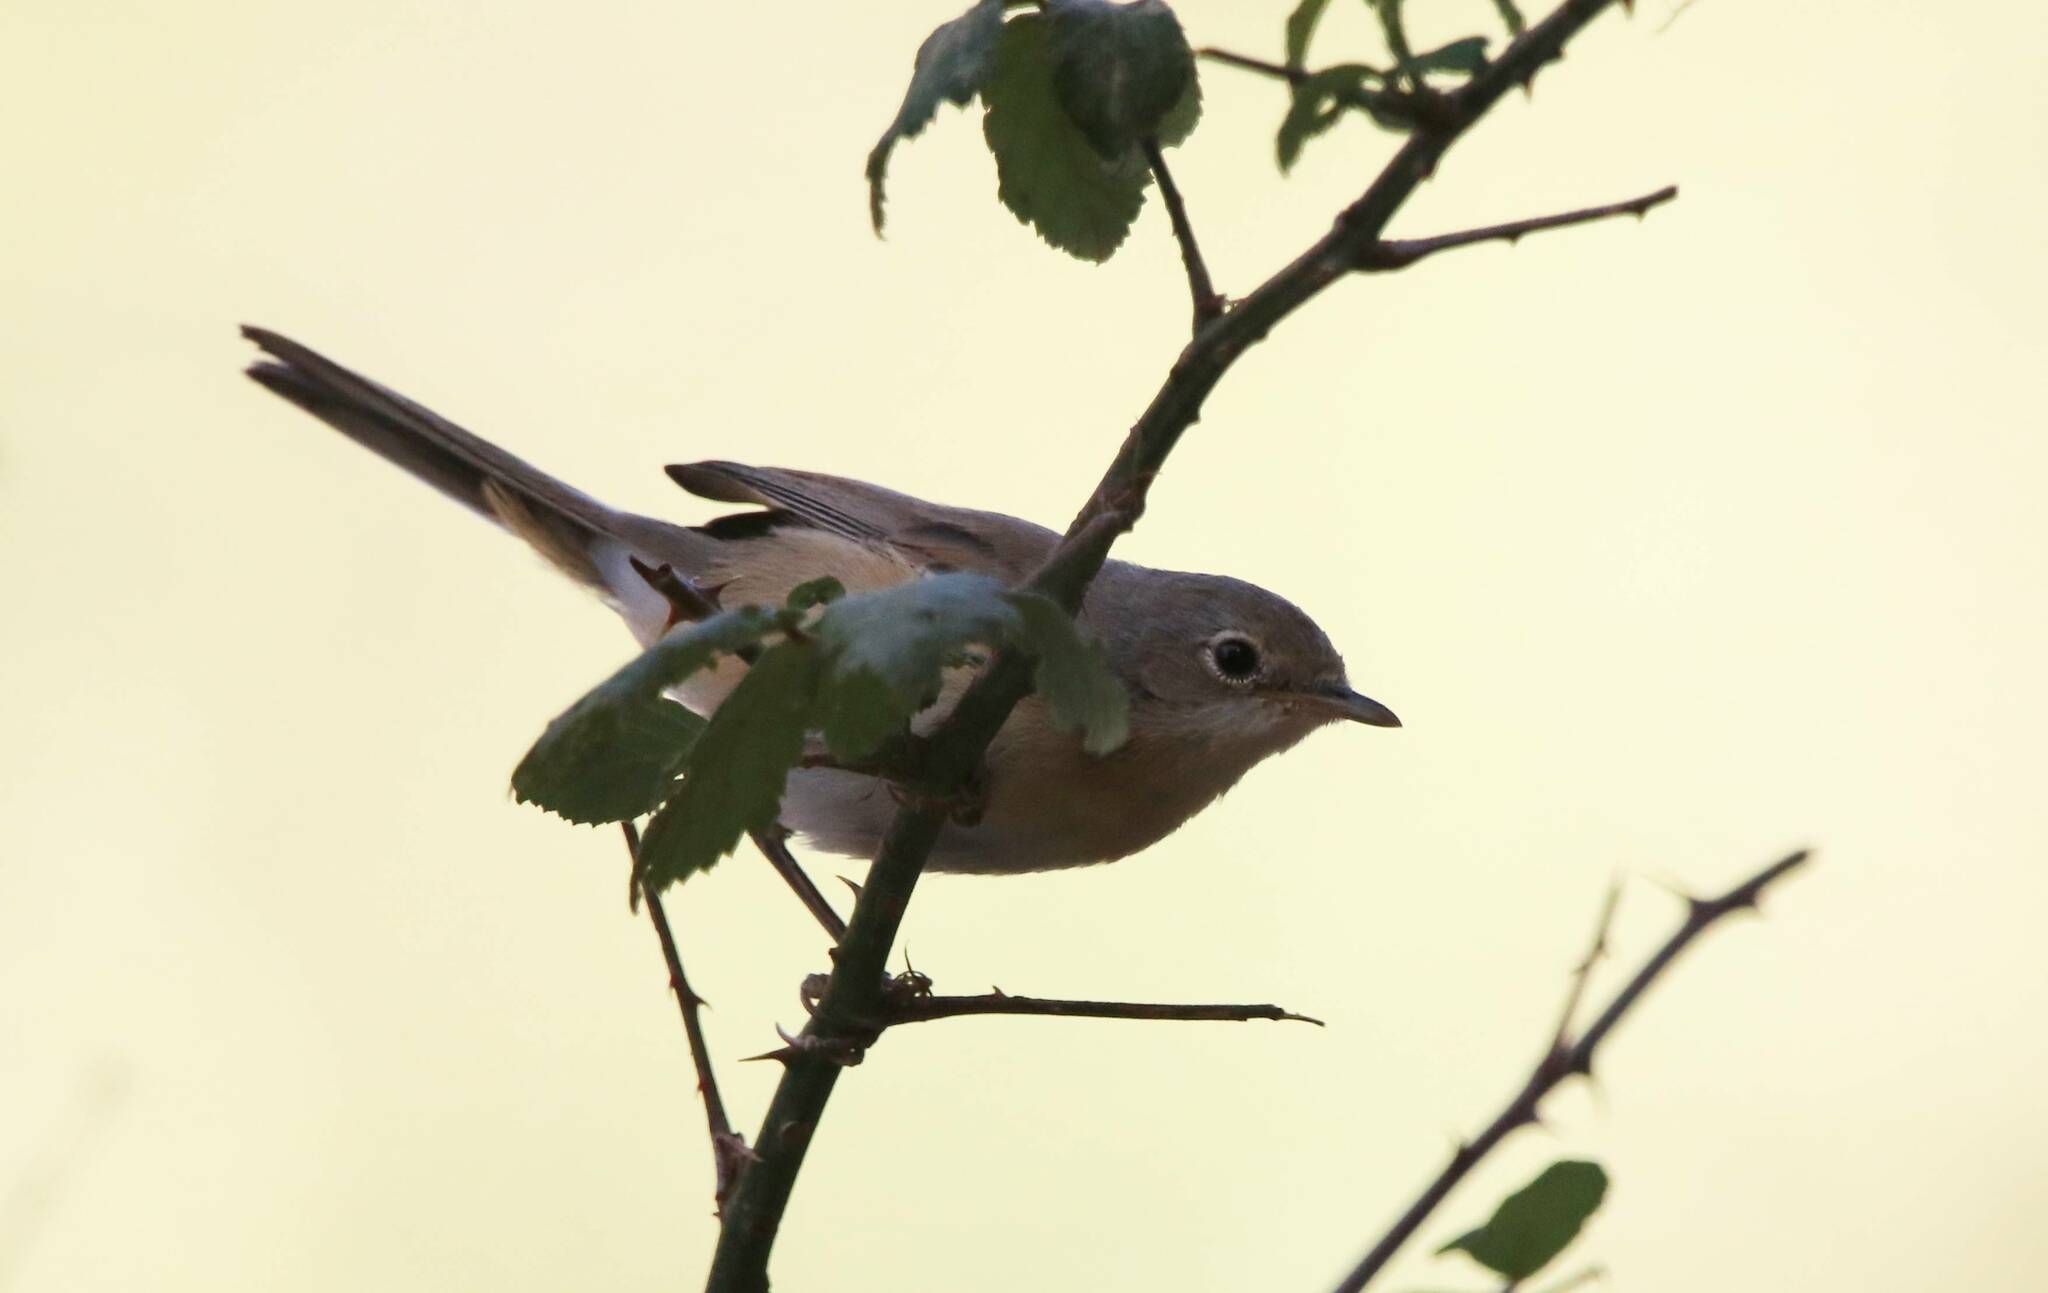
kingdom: Animalia
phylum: Chordata
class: Aves
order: Passeriformes
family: Sylviidae
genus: Sylvia
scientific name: Sylvia communis
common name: Common whitethroat
